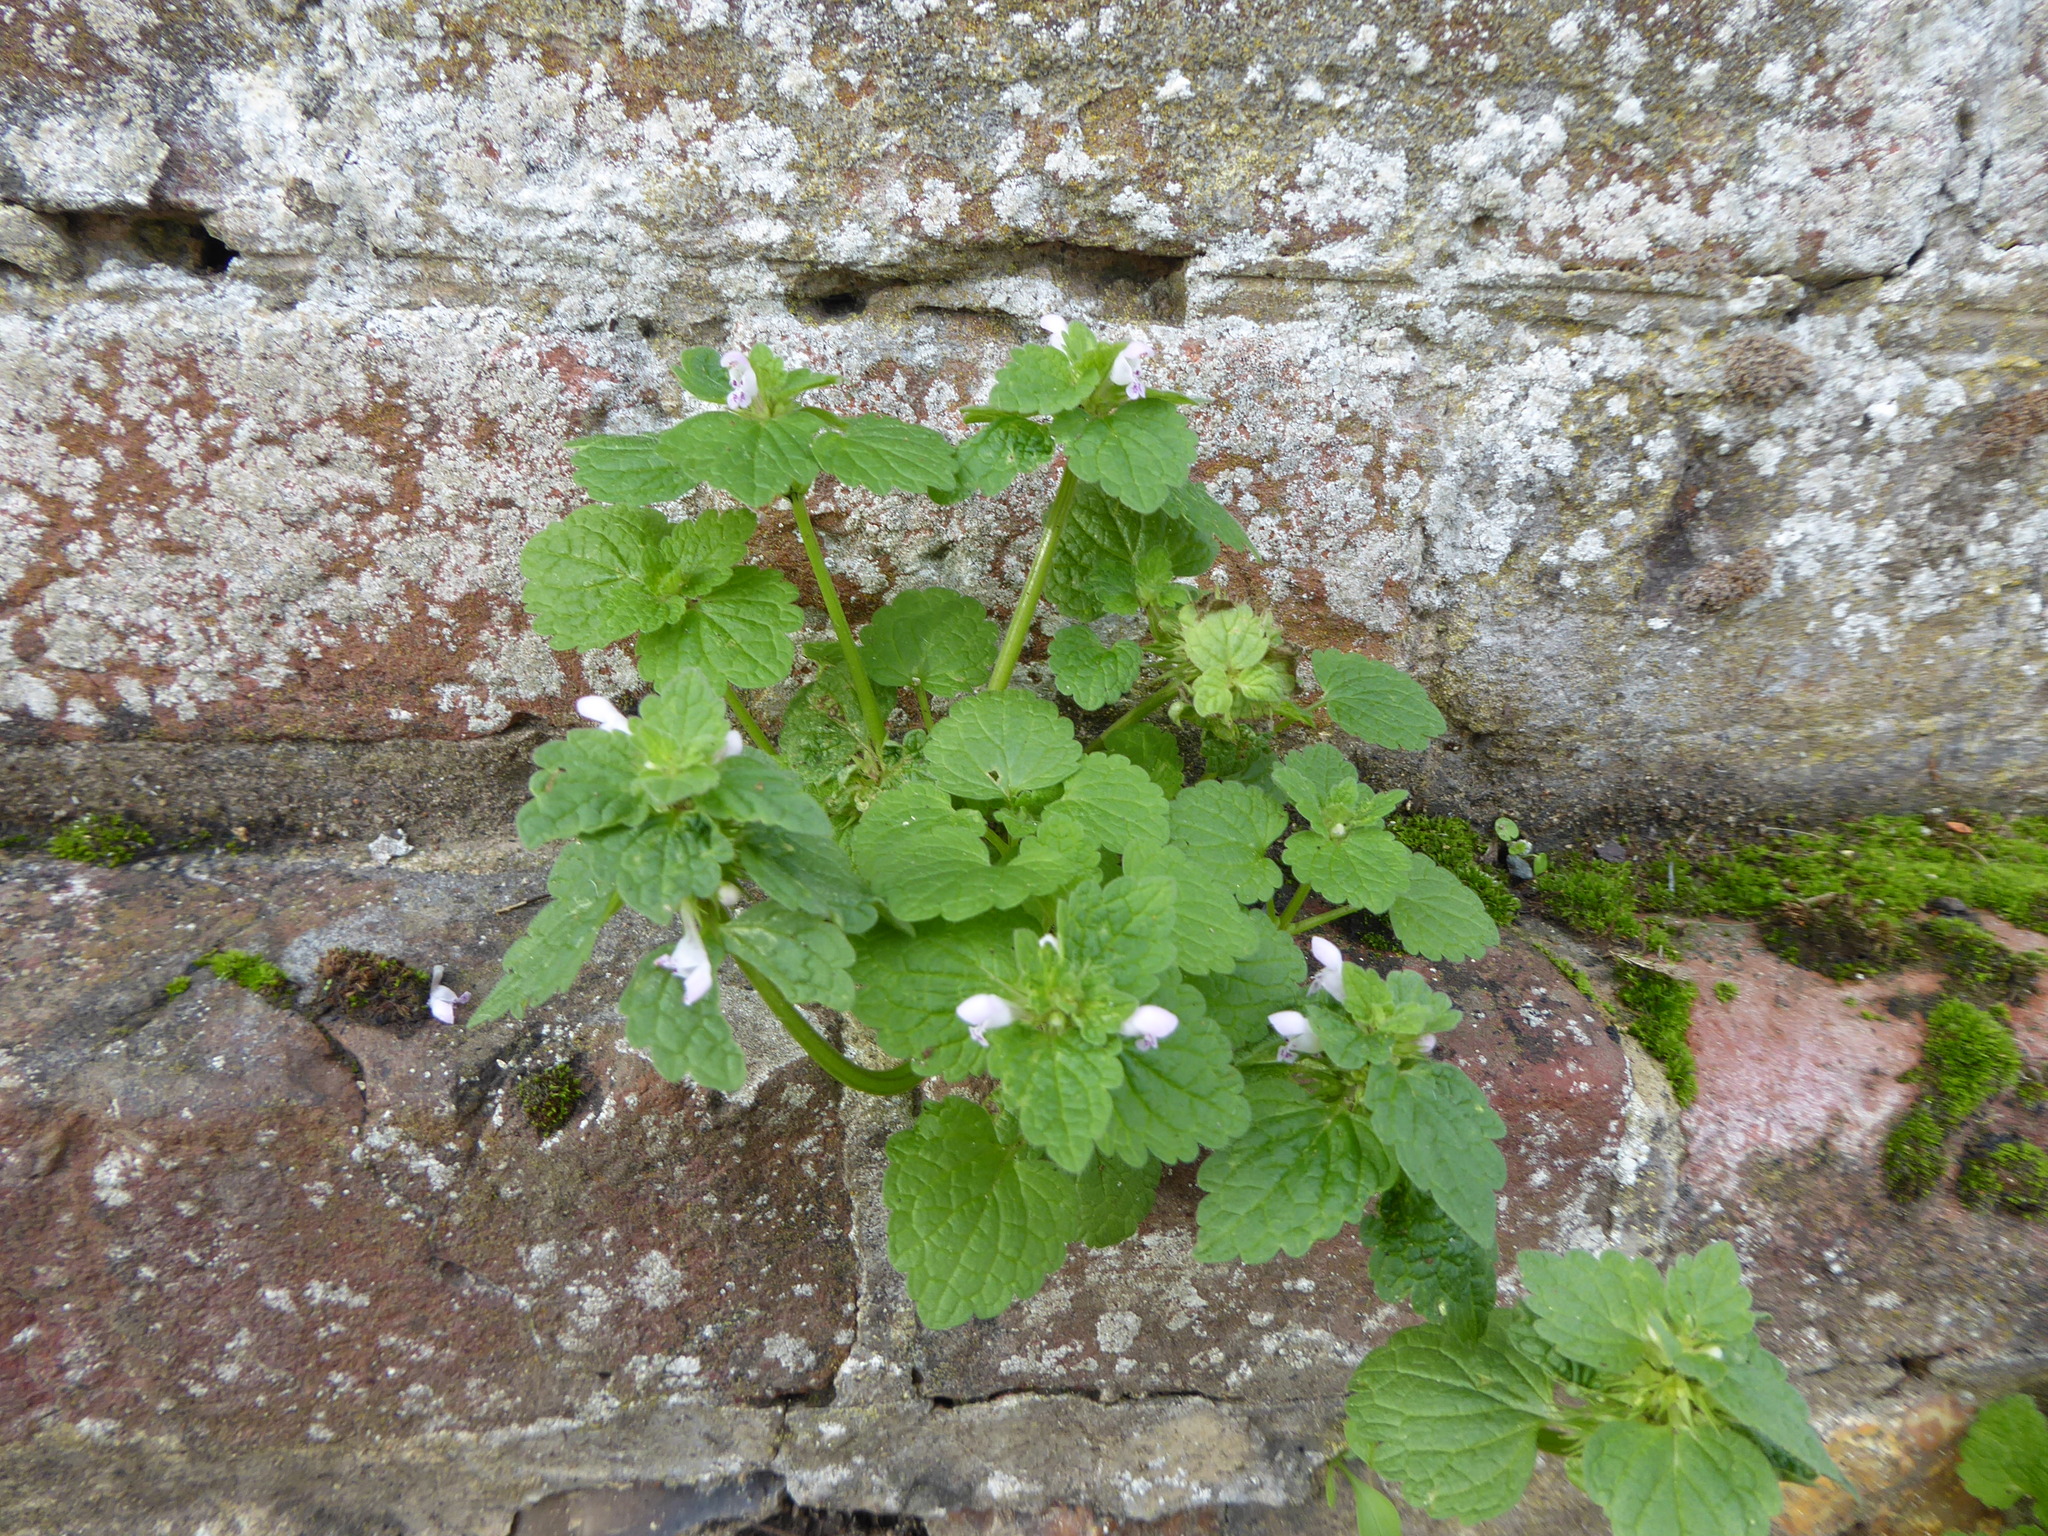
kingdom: Plantae
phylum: Tracheophyta
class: Magnoliopsida
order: Lamiales
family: Lamiaceae
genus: Lamium
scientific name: Lamium purpureum
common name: Red dead-nettle
